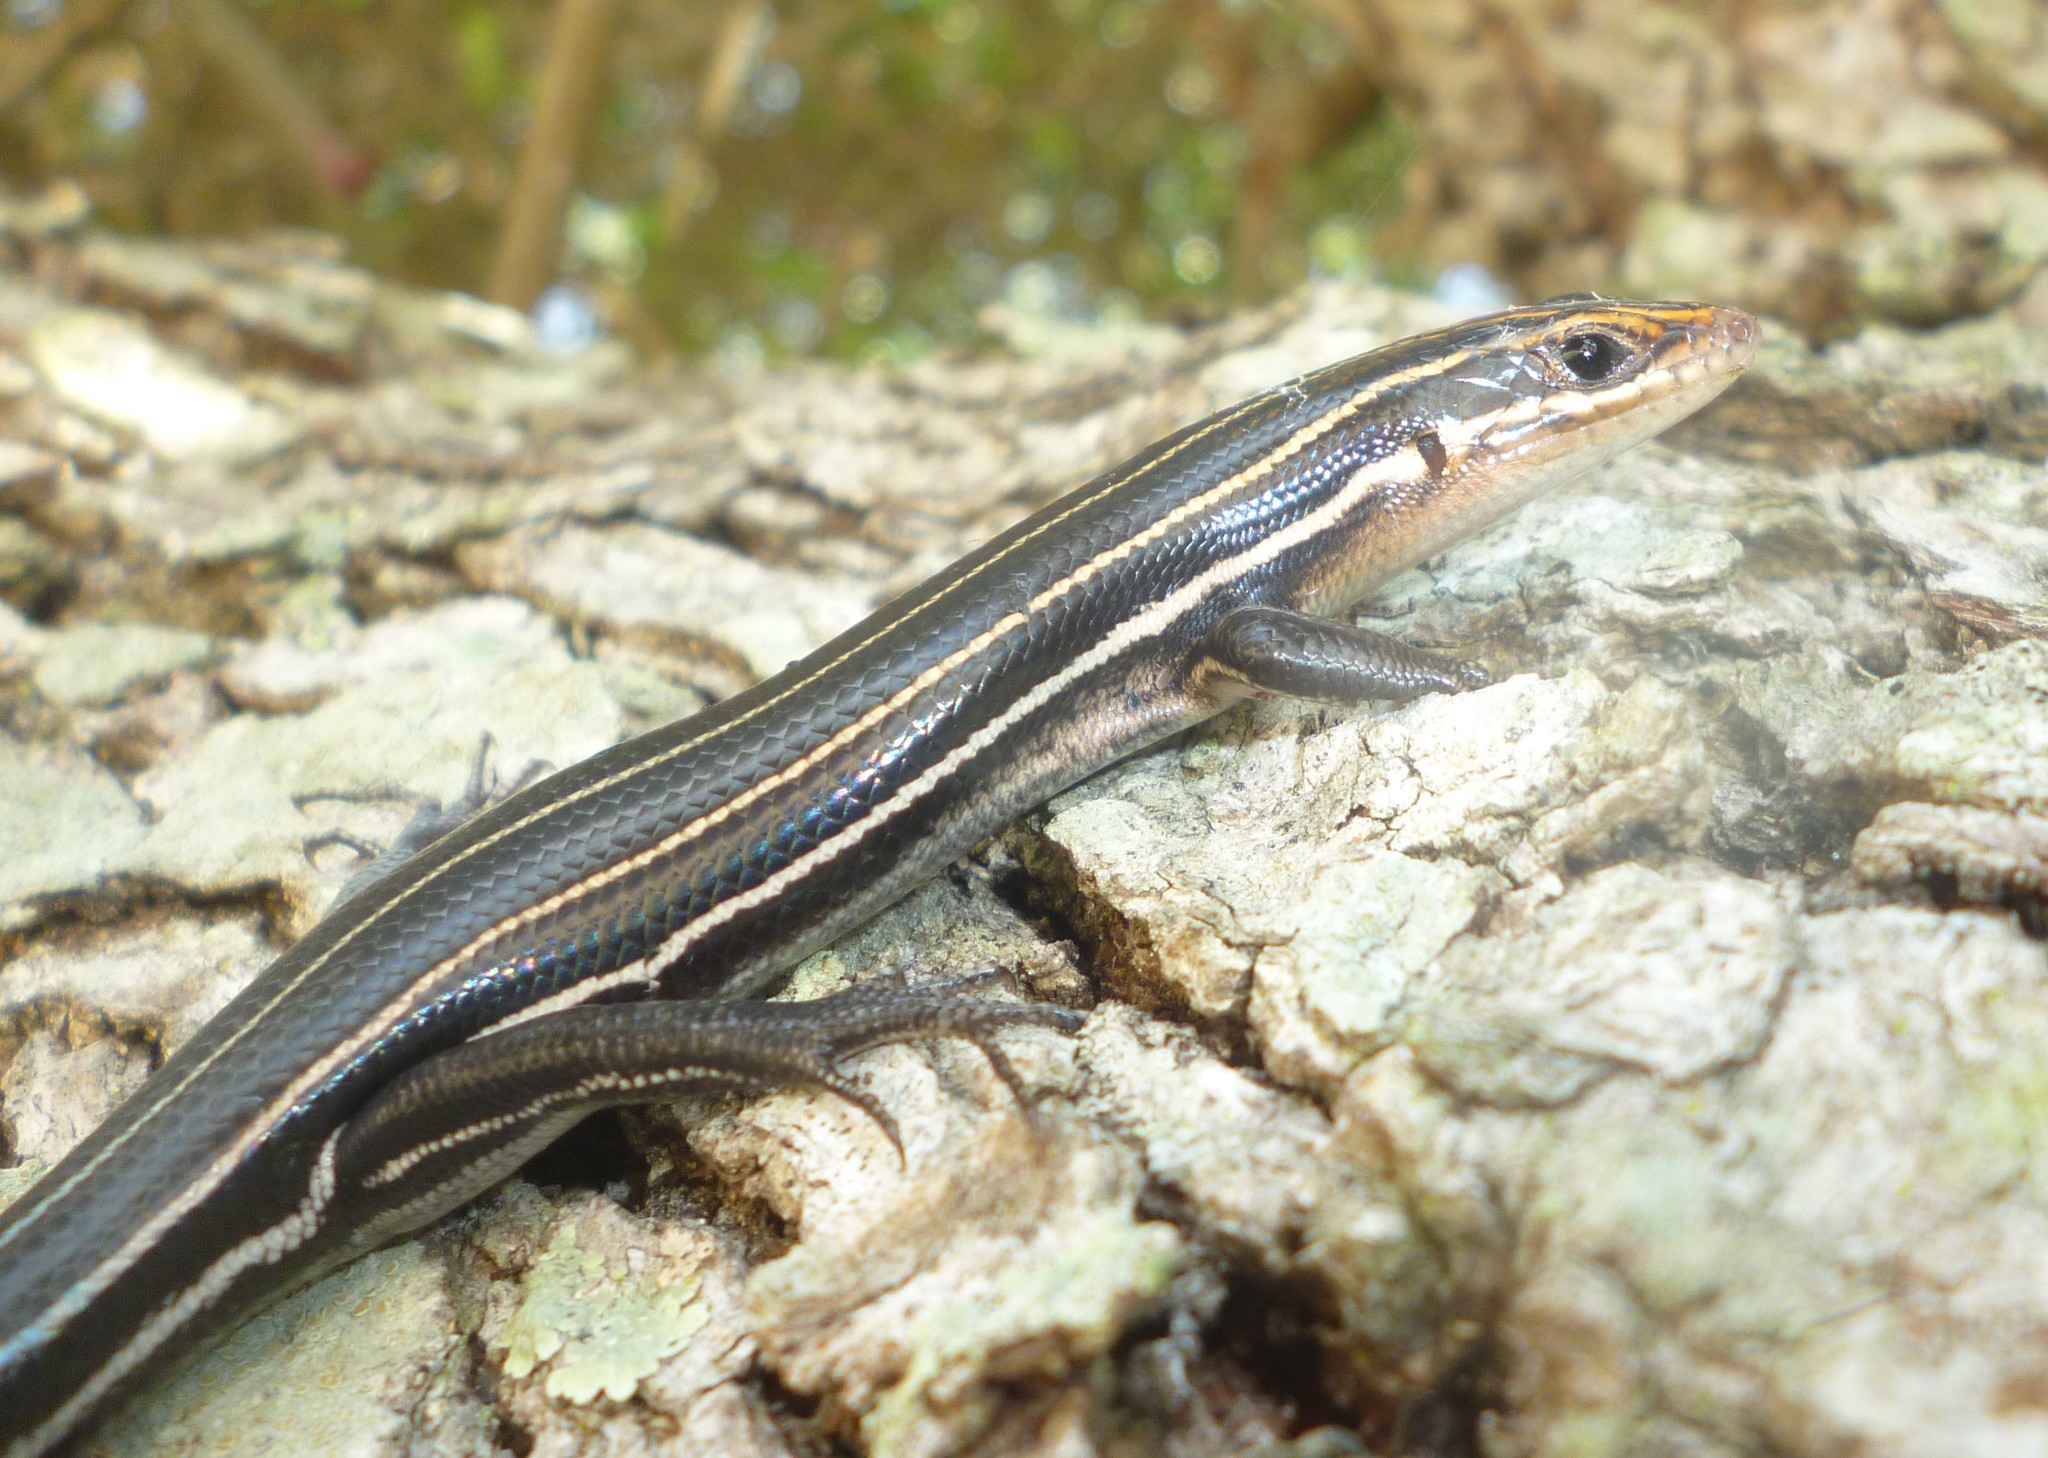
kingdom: Animalia
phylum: Chordata
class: Squamata
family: Scincidae
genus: Plestiodon
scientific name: Plestiodon inexpectatus
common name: Southeastern five-lined skink
